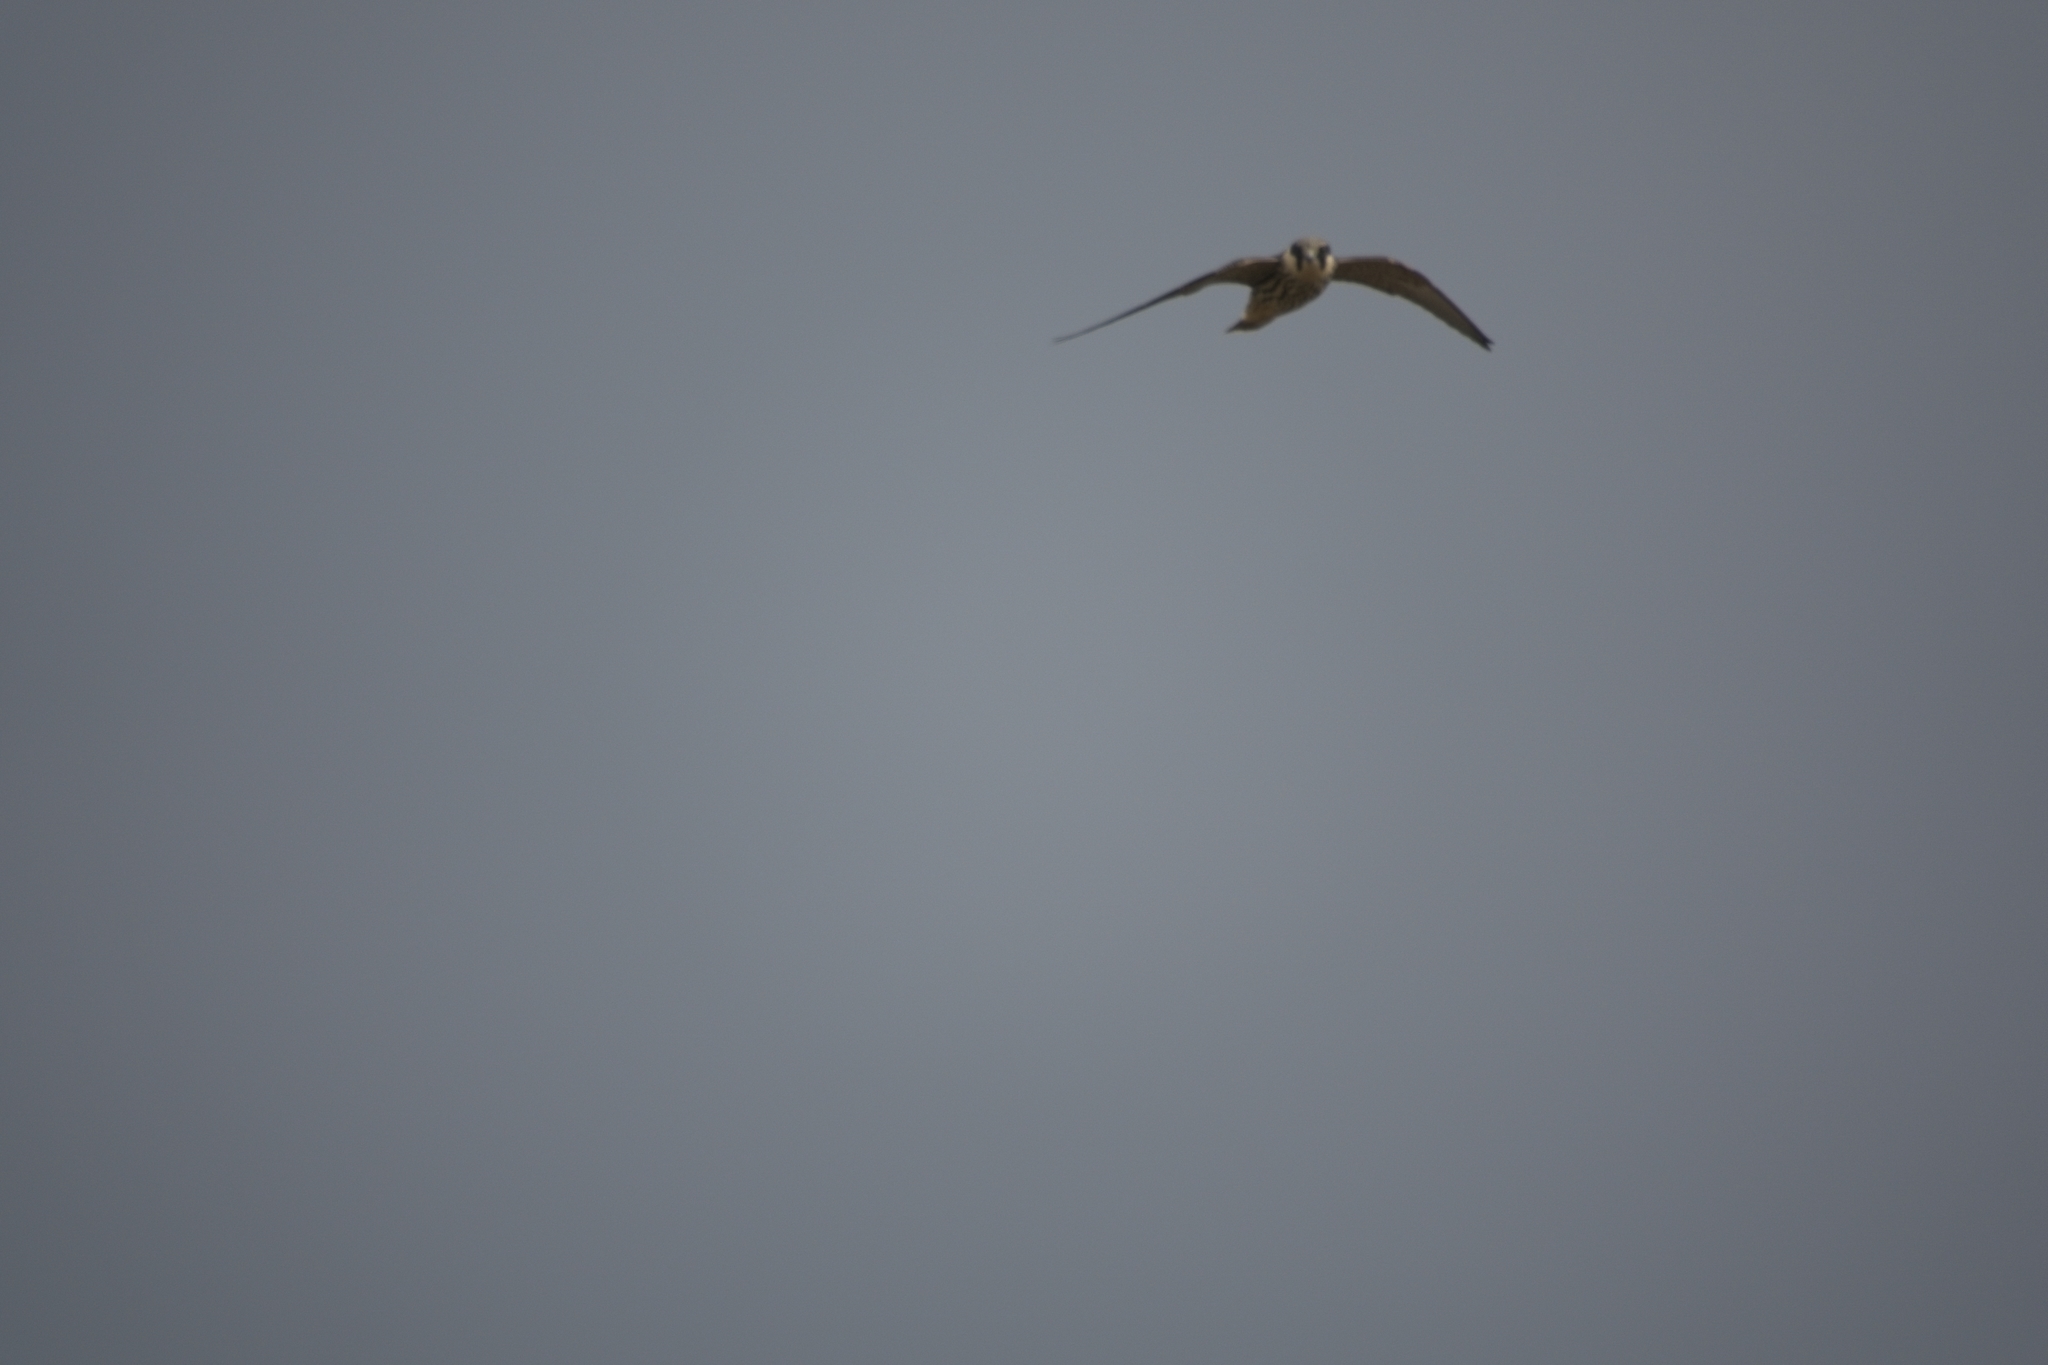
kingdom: Animalia
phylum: Chordata
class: Aves
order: Falconiformes
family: Falconidae
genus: Falco
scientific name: Falco subbuteo
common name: Eurasian hobby
